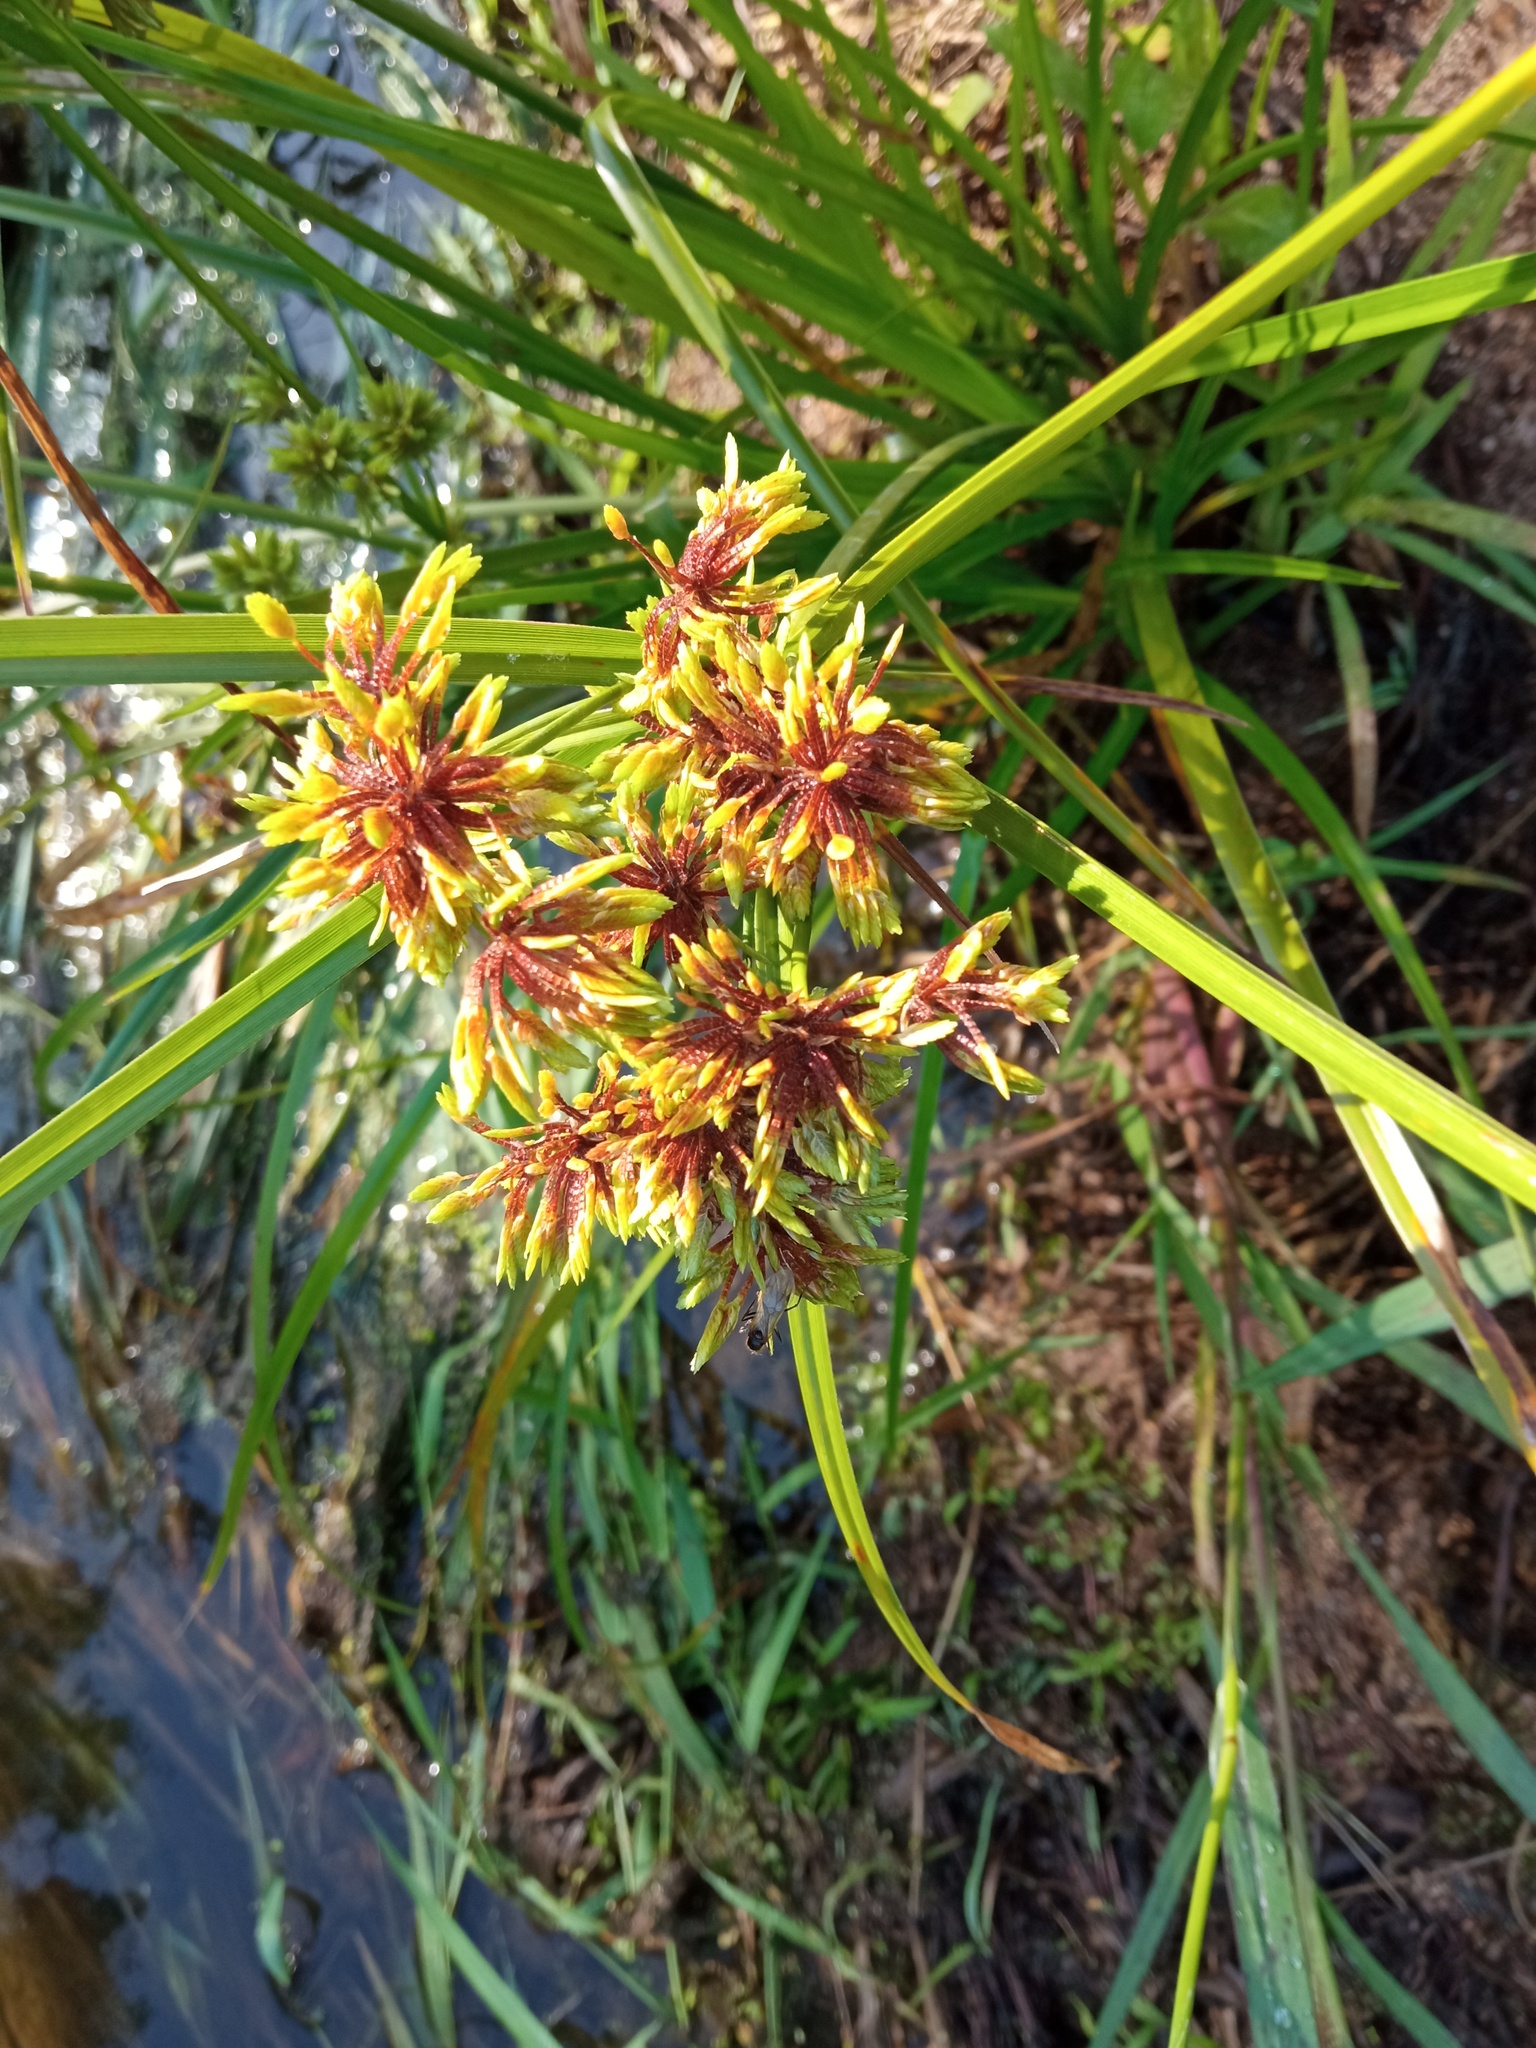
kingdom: Plantae
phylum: Tracheophyta
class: Liliopsida
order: Poales
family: Cyperaceae
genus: Cyperus
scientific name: Cyperus eragrostis
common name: Tall flatsedge
